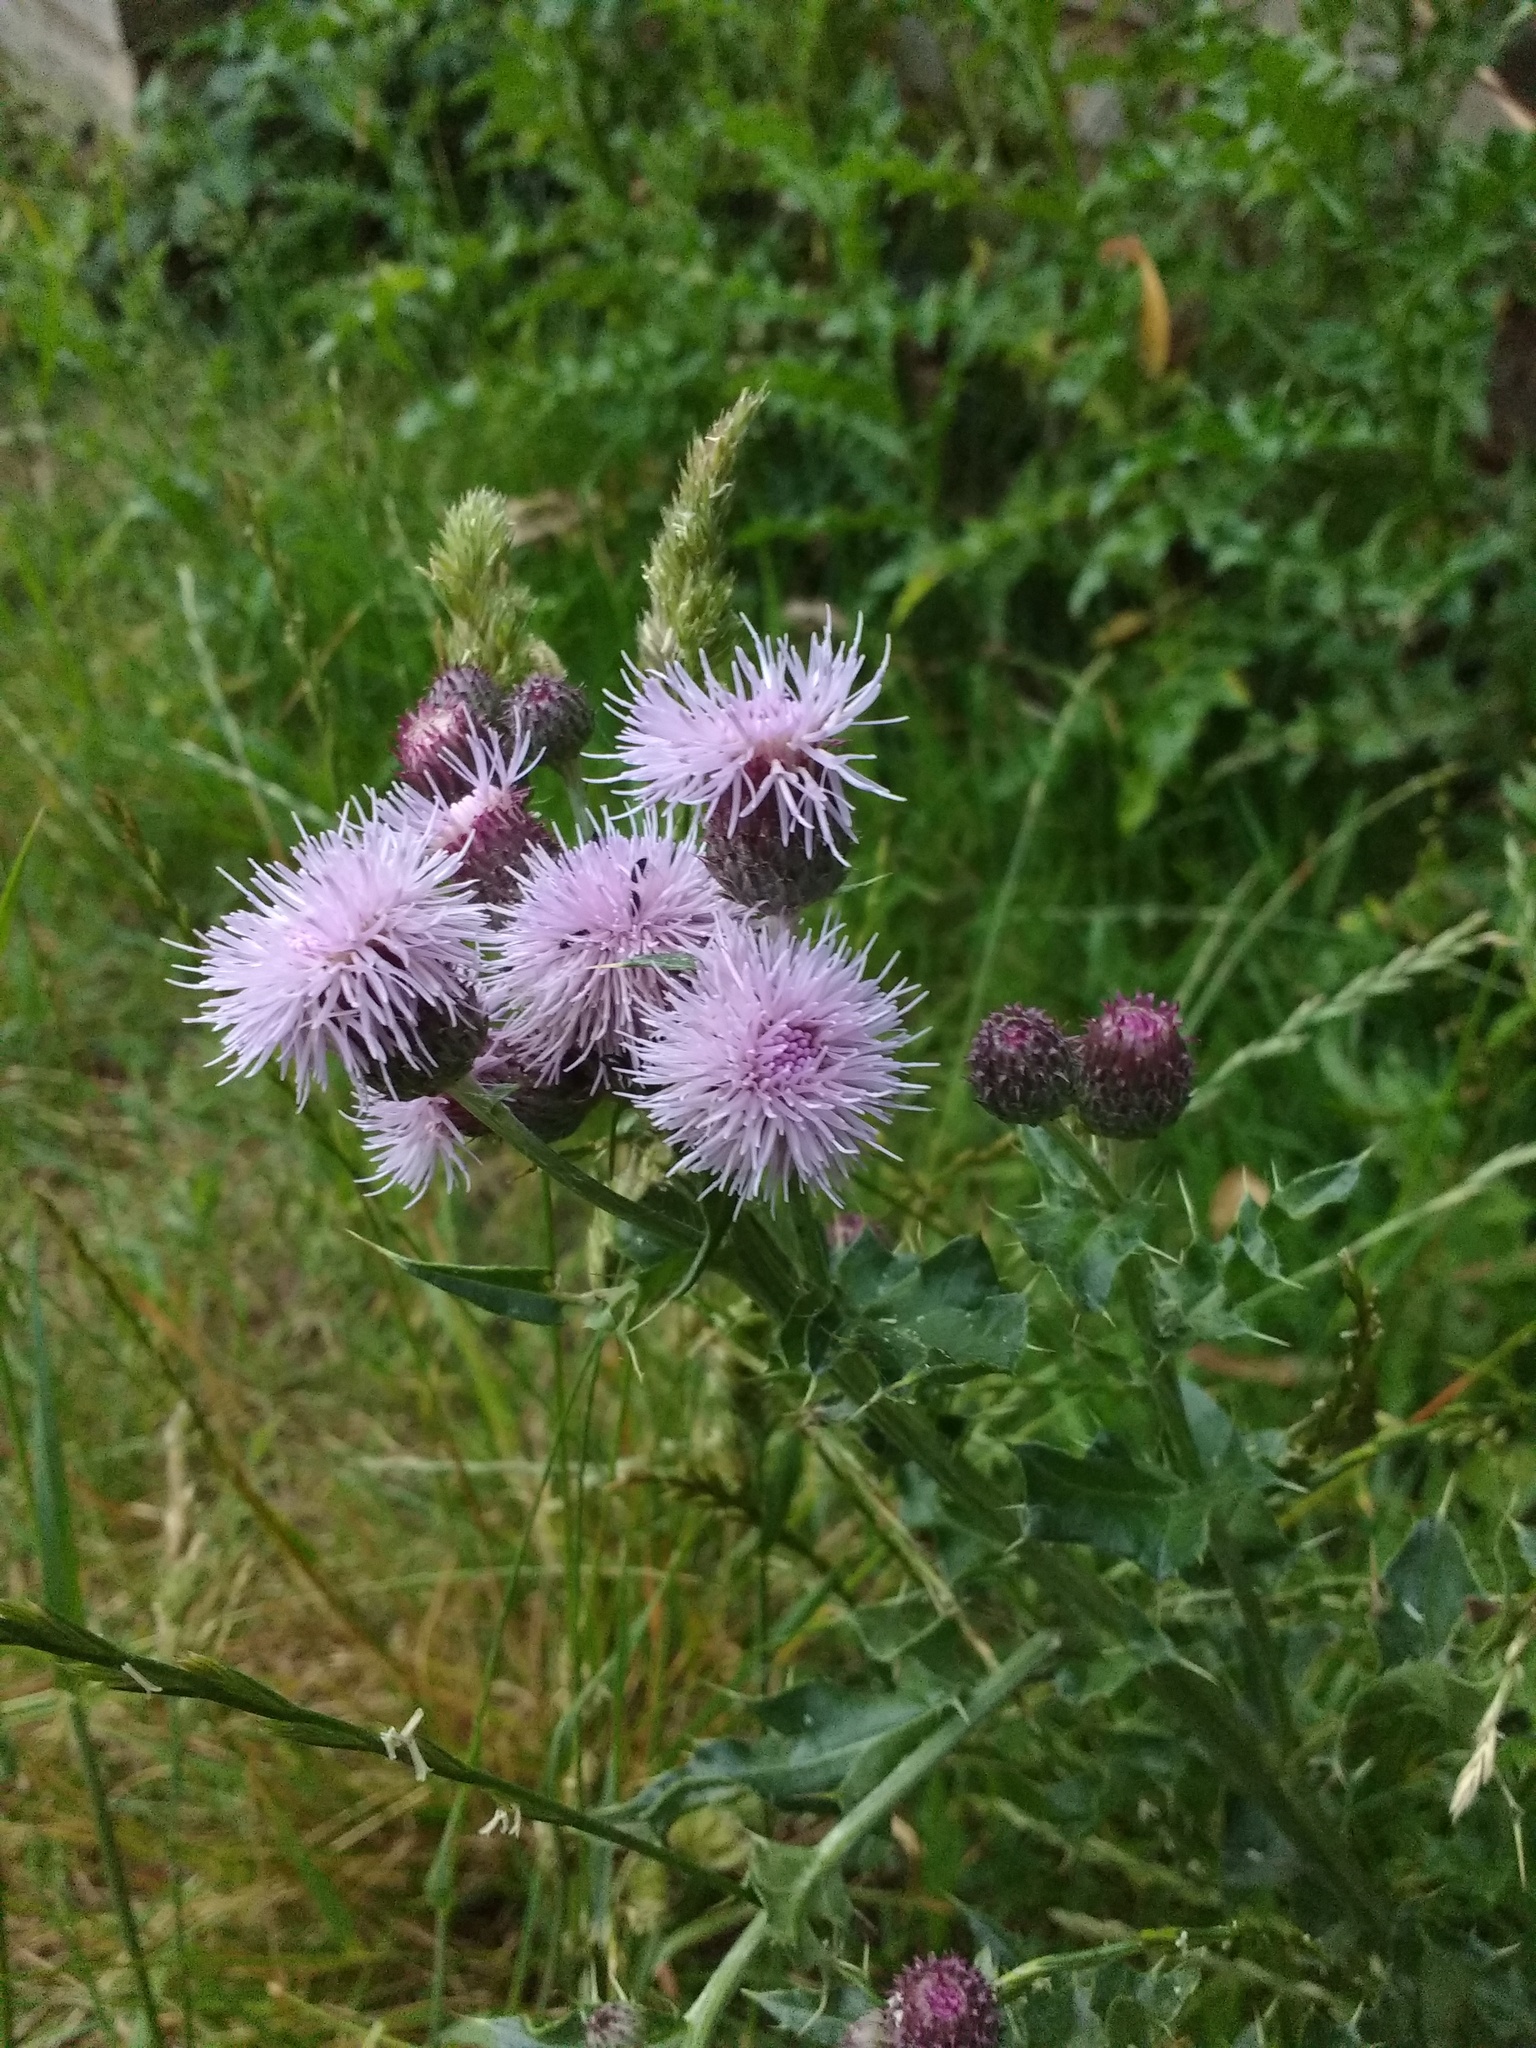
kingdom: Plantae
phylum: Tracheophyta
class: Magnoliopsida
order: Asterales
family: Asteraceae
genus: Cirsium
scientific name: Cirsium arvense
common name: Creeping thistle
